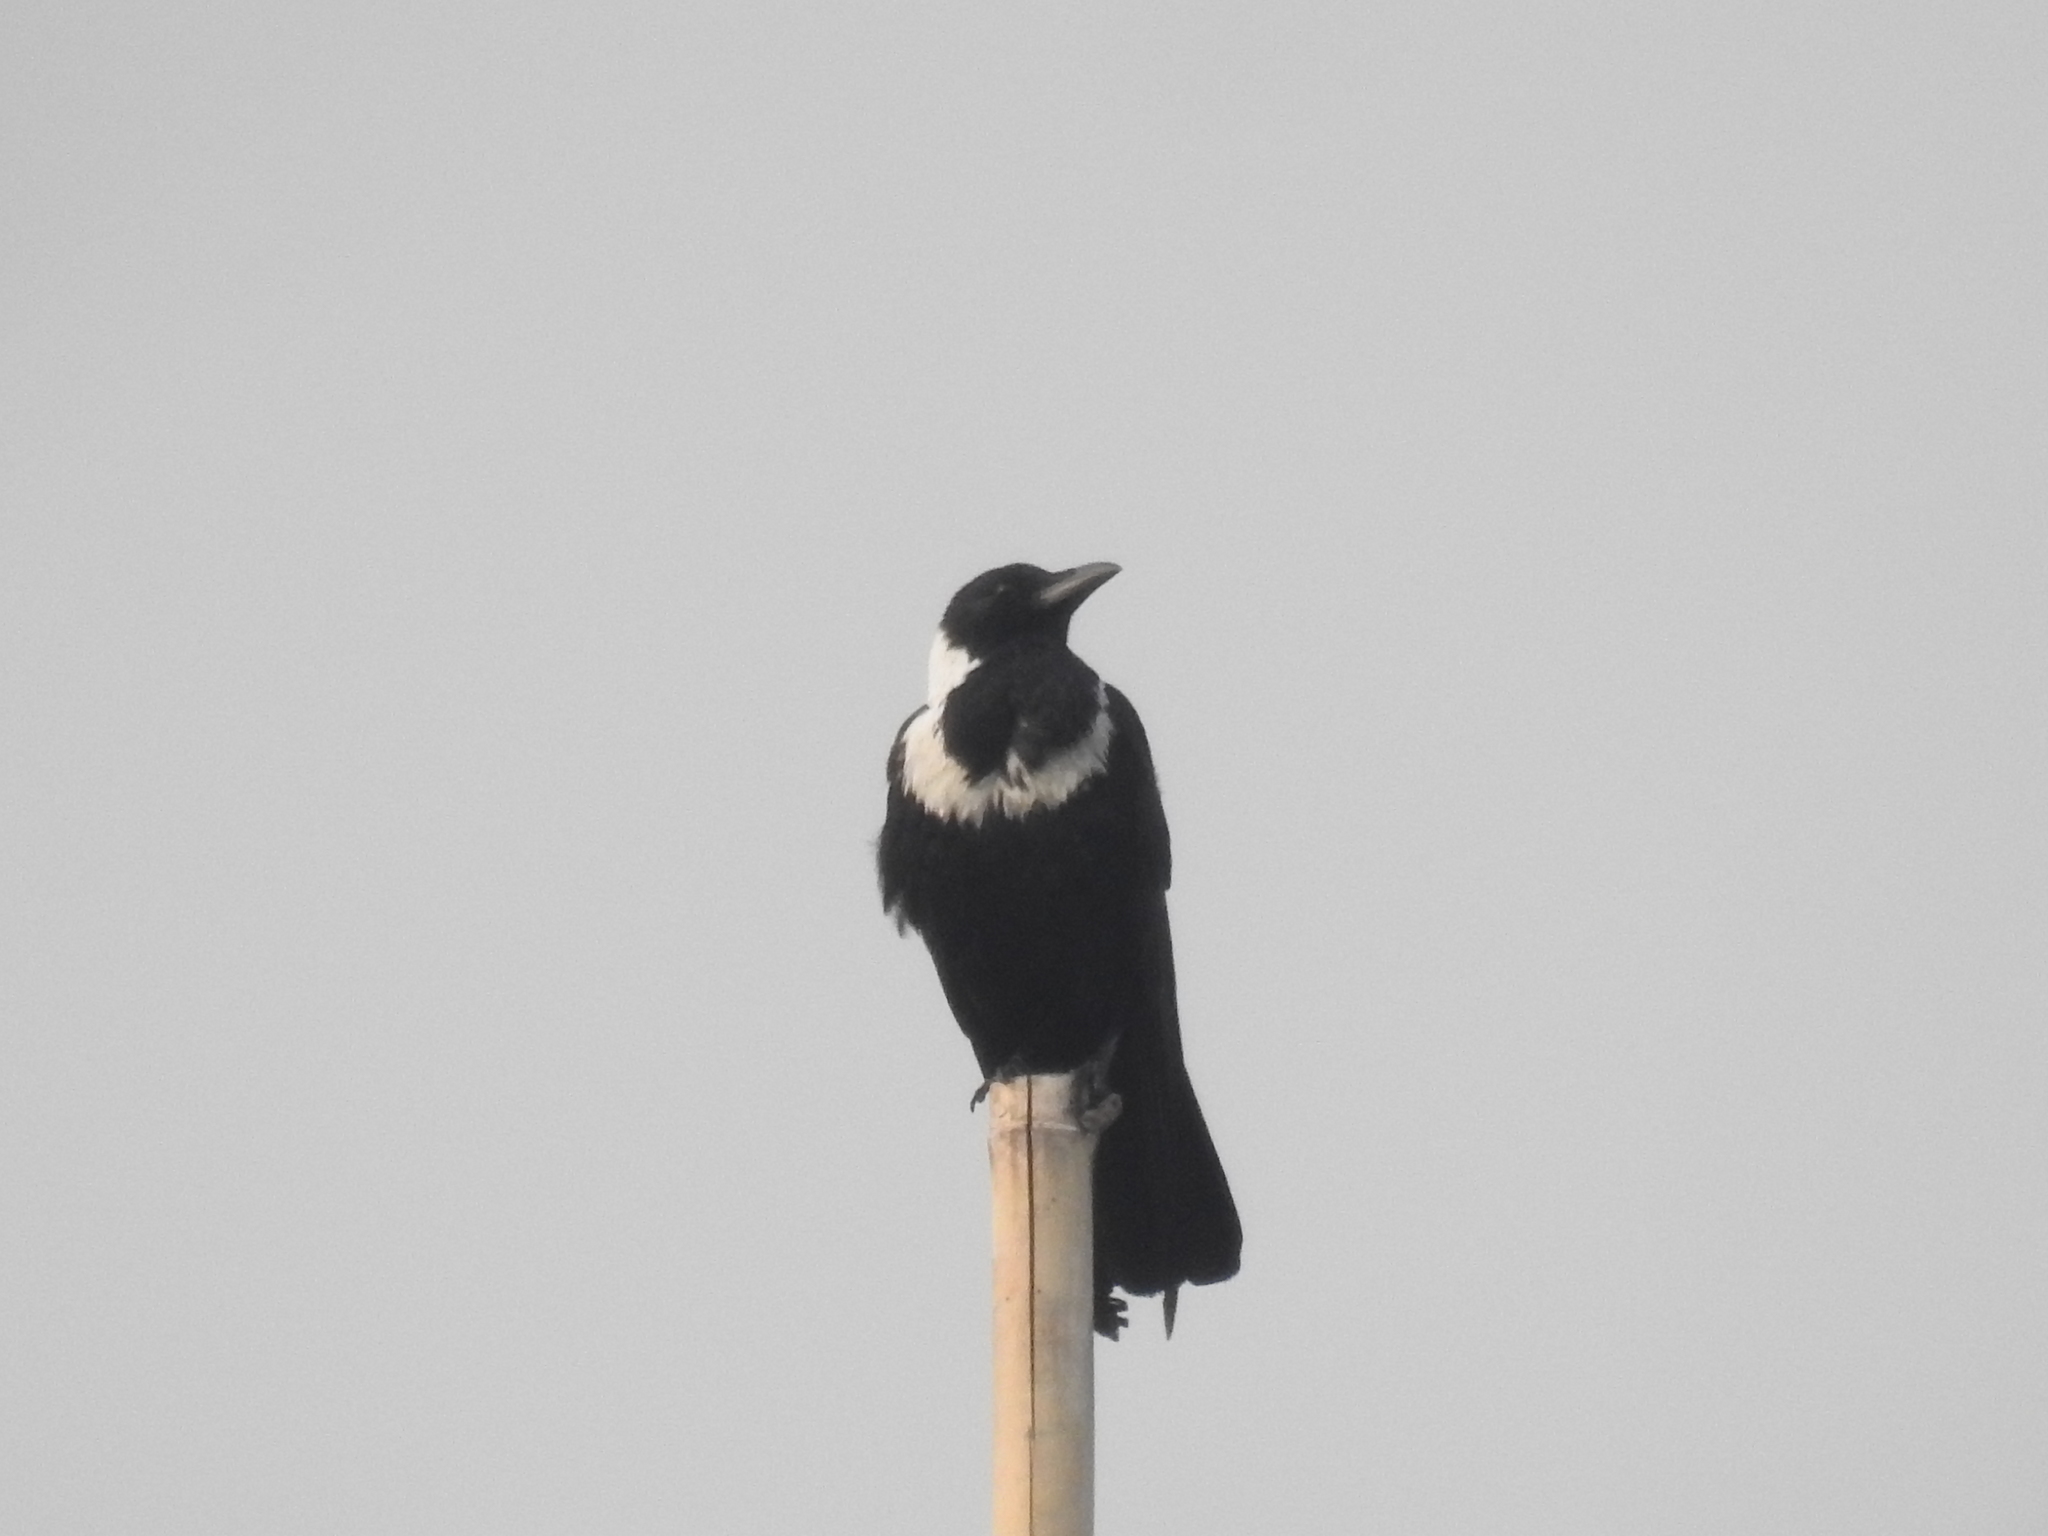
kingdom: Animalia
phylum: Chordata
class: Aves
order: Passeriformes
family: Corvidae
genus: Corvus
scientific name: Corvus pectoralis
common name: Collared crow
